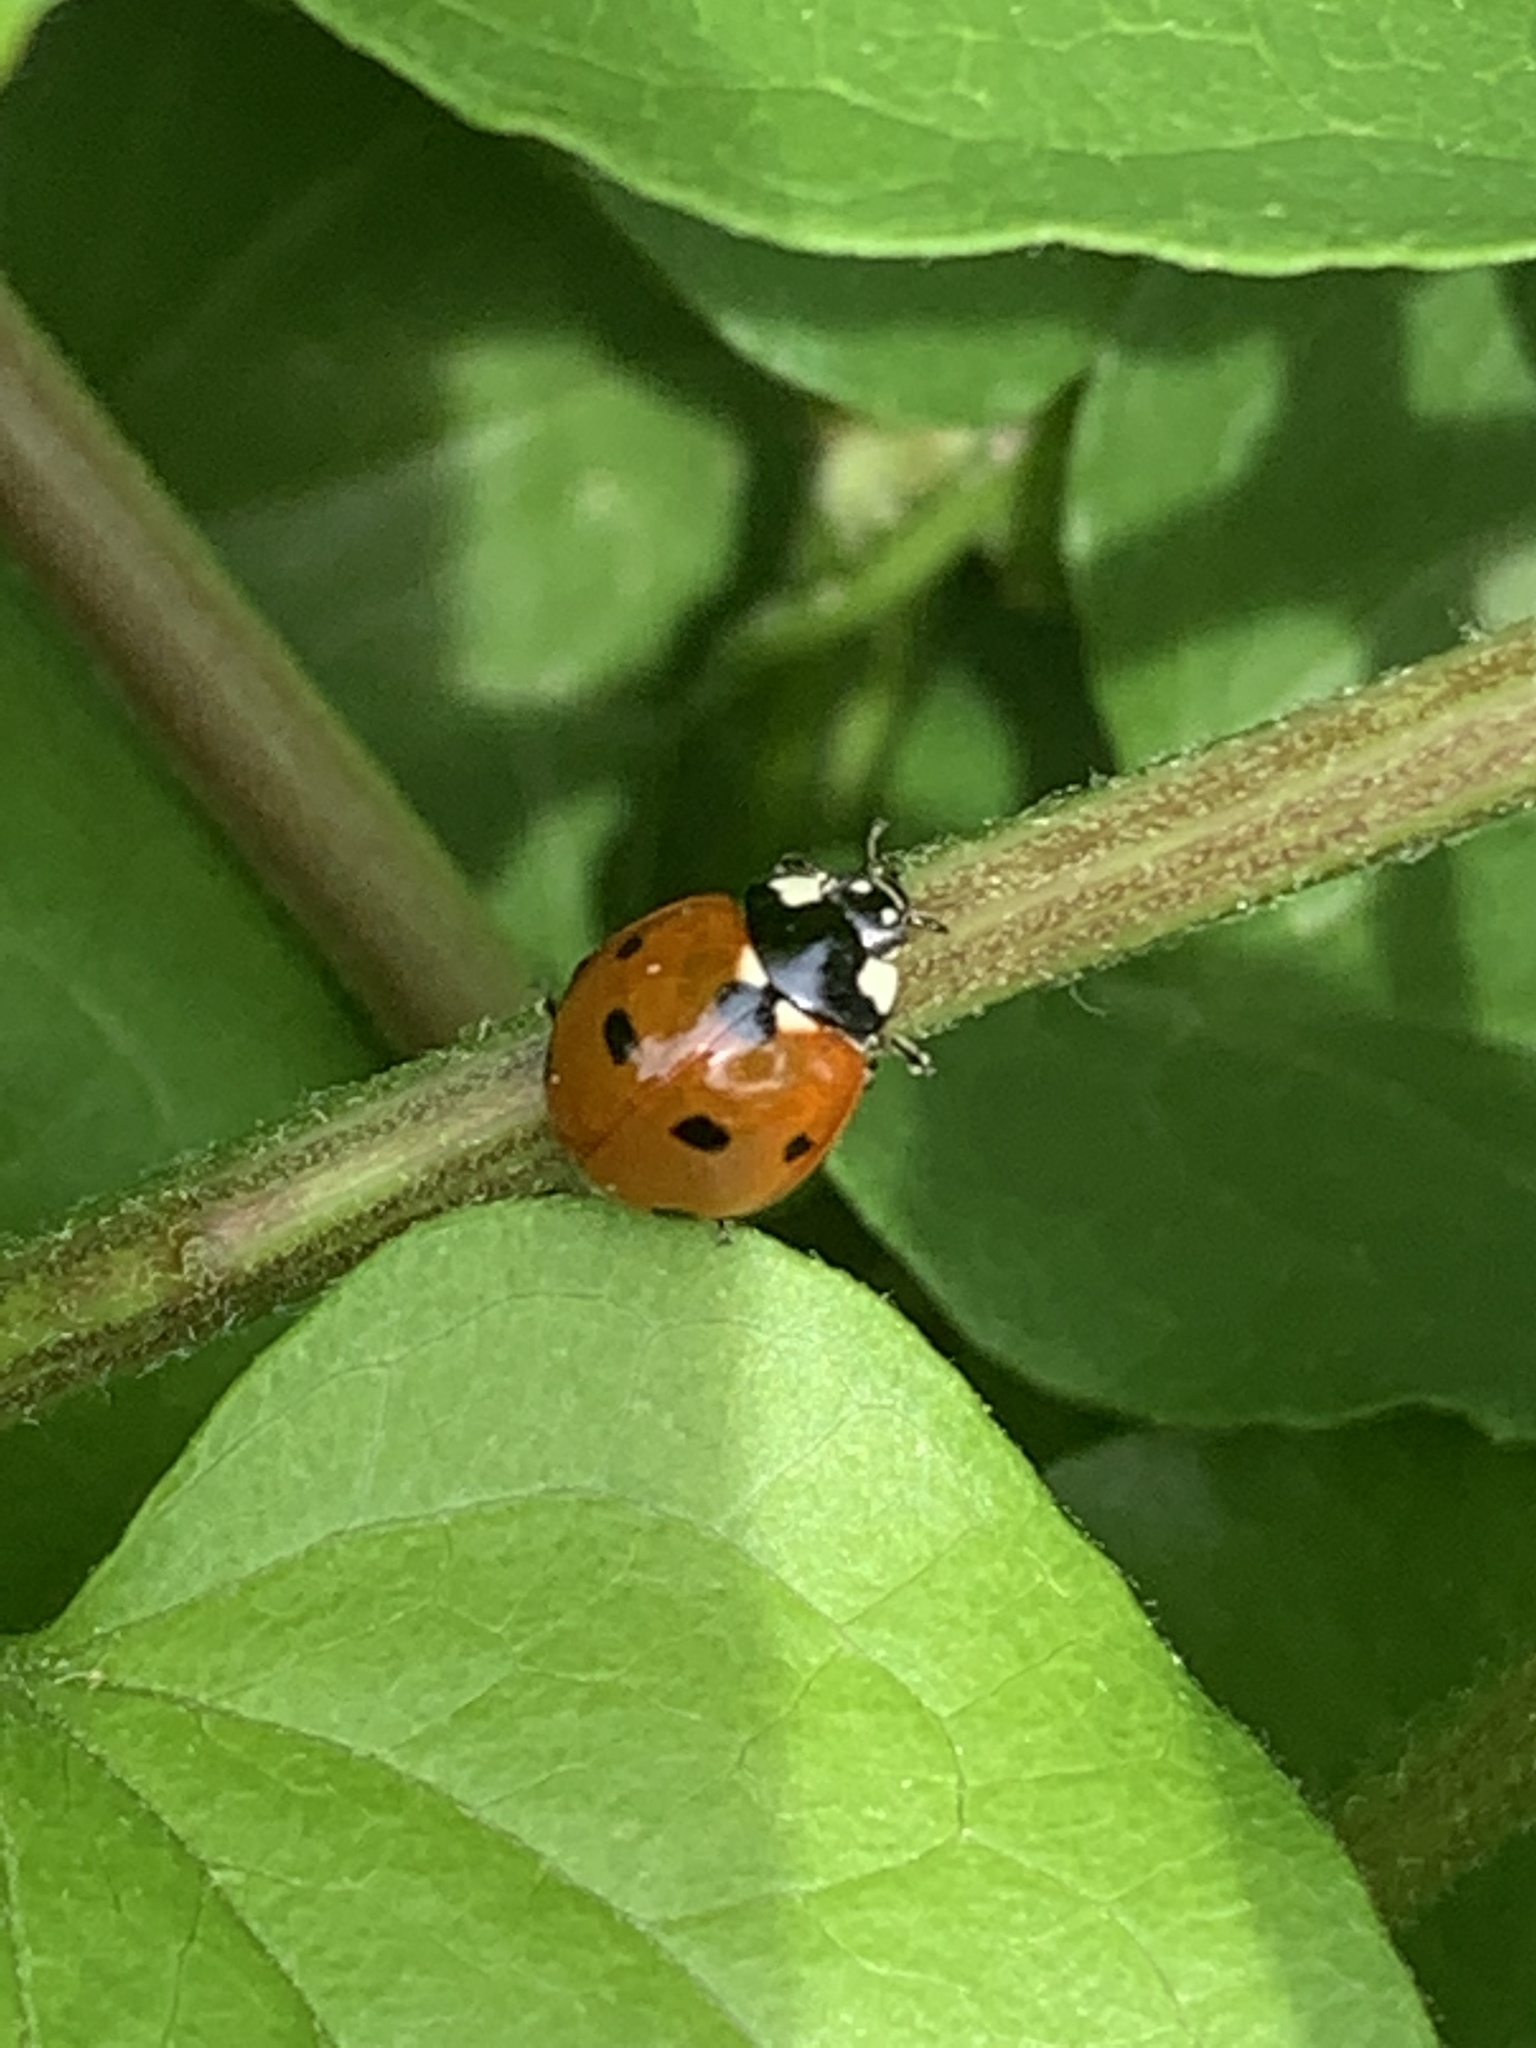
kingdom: Animalia
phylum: Arthropoda
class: Insecta
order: Coleoptera
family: Coccinellidae
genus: Coccinella
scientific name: Coccinella septempunctata
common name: Sevenspotted lady beetle
